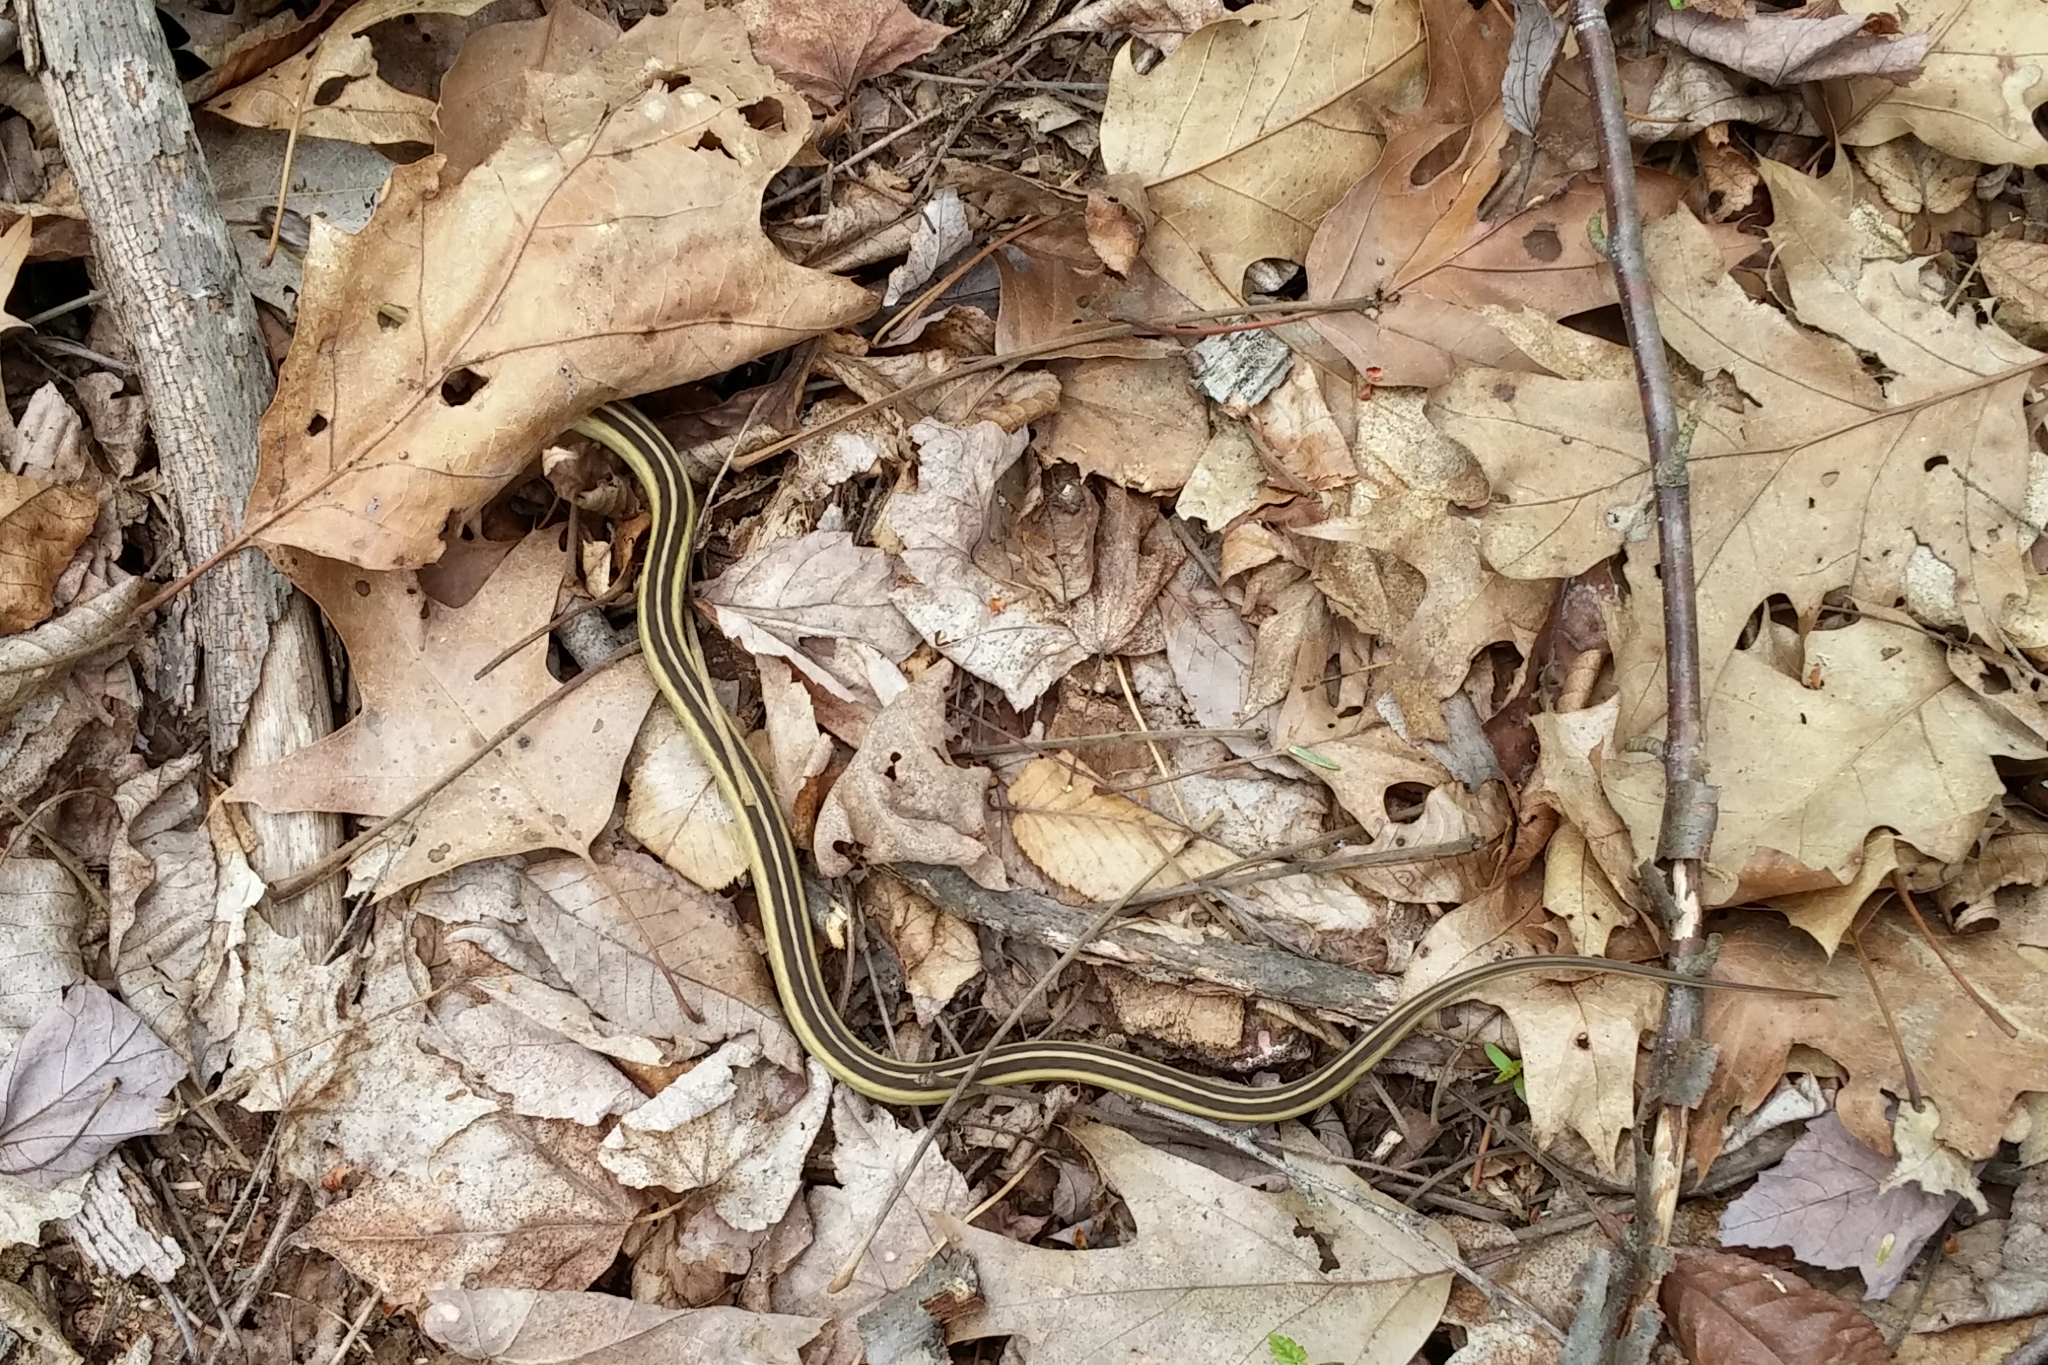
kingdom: Animalia
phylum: Chordata
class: Squamata
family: Colubridae
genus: Thamnophis
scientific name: Thamnophis sirtalis
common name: Common garter snake
